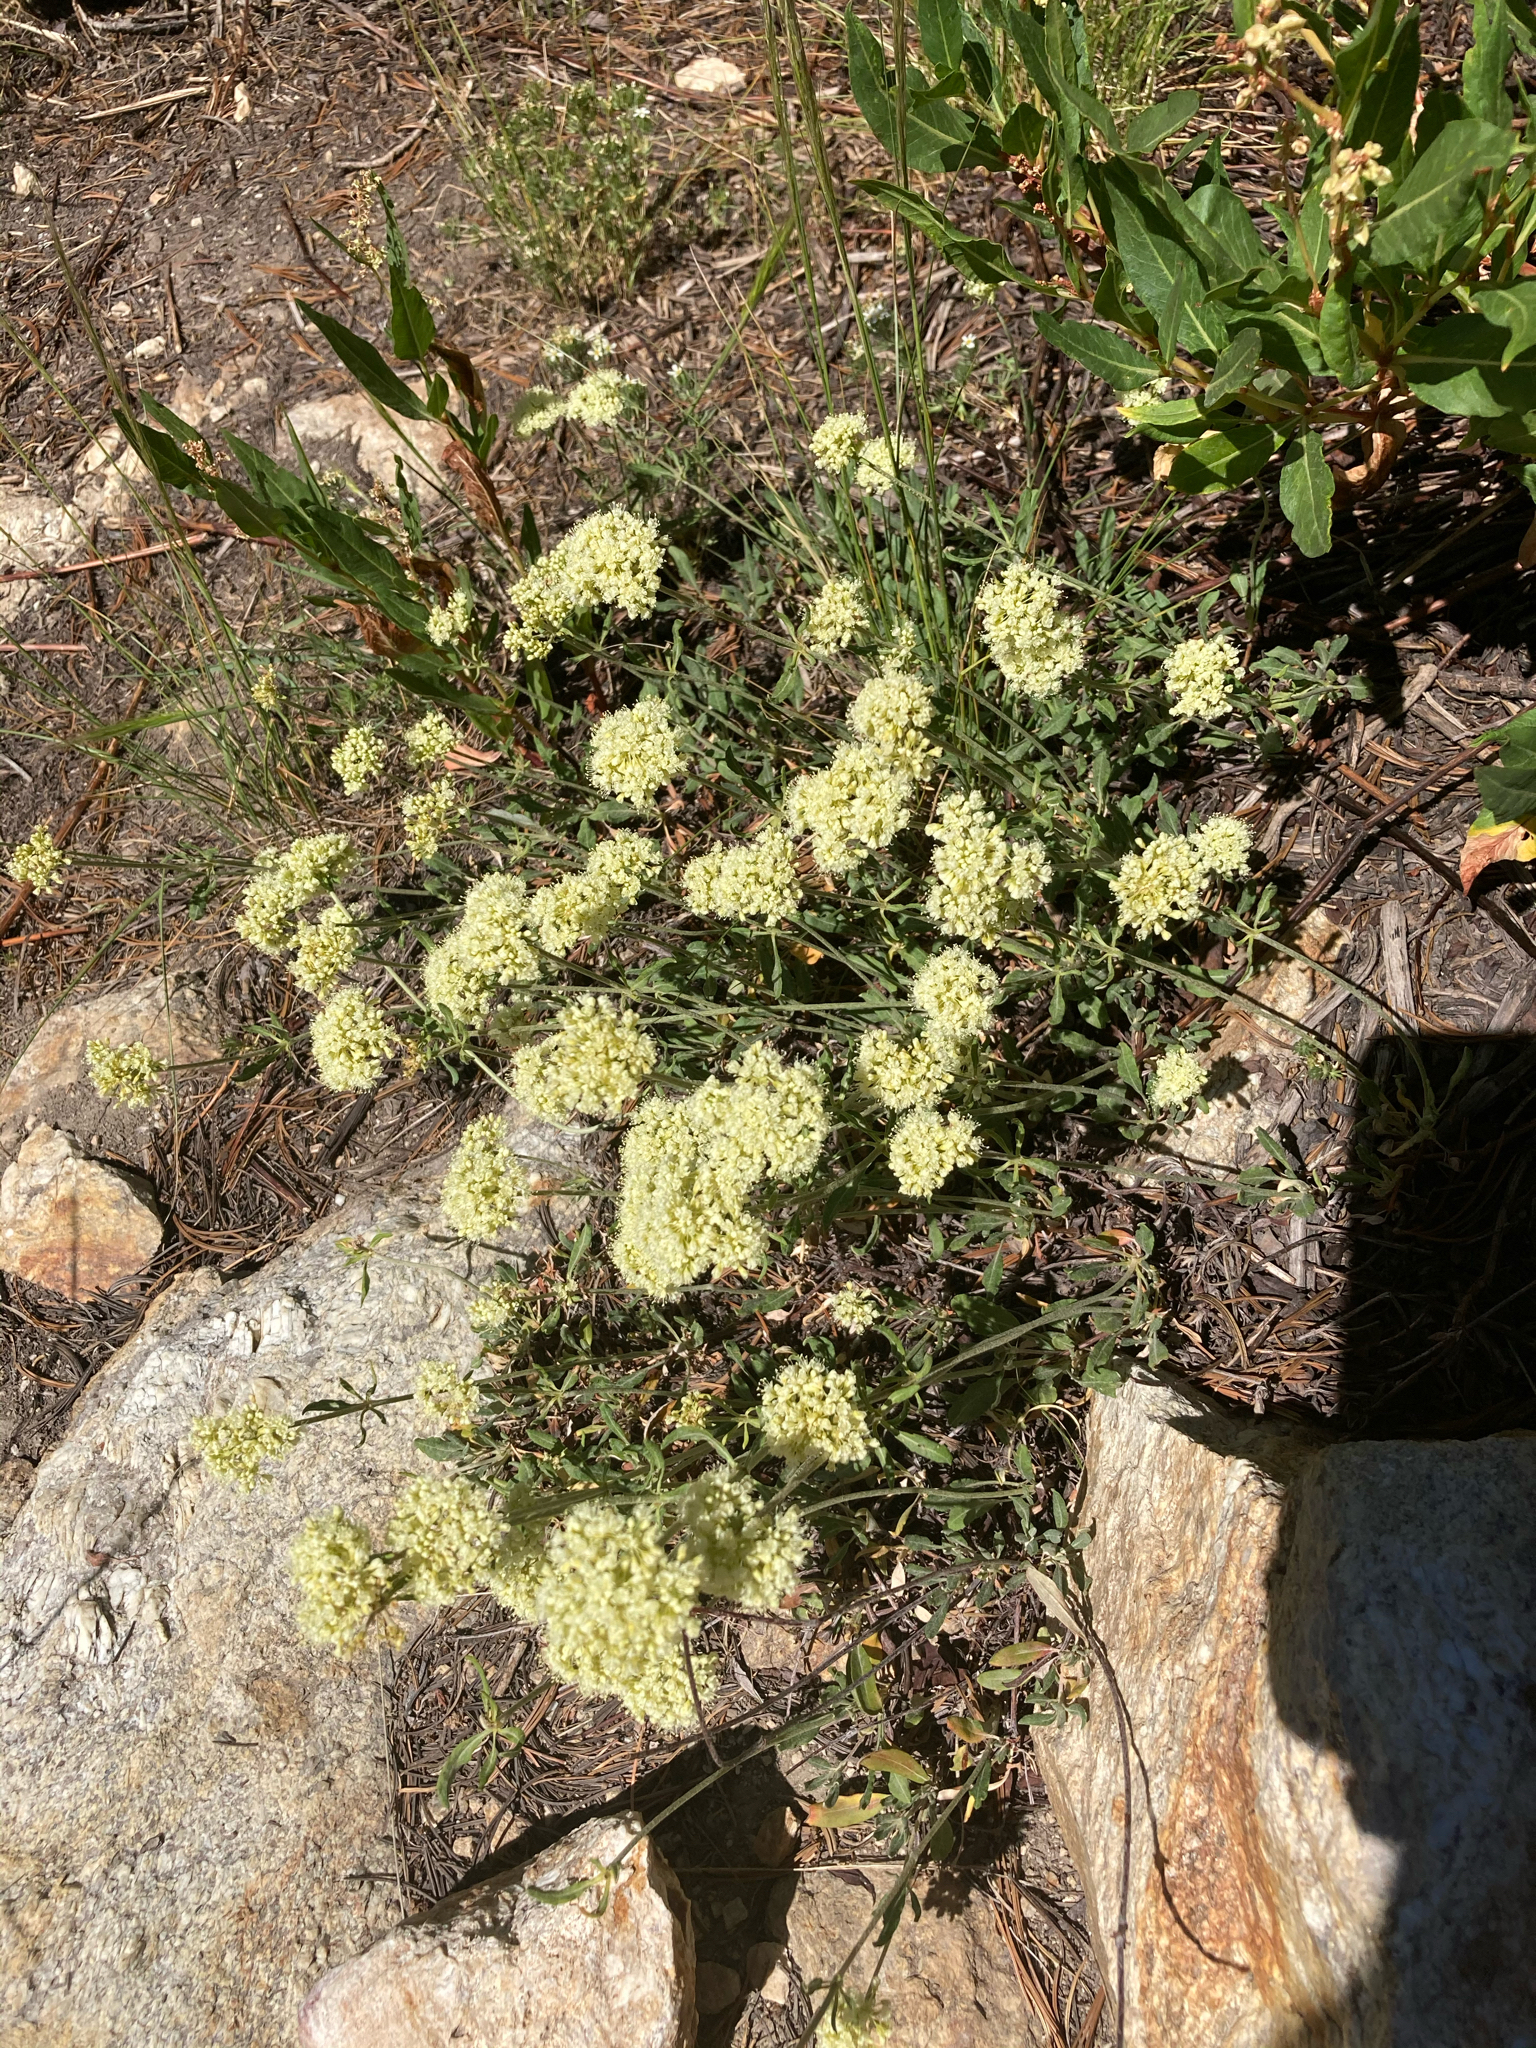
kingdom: Plantae
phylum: Tracheophyta
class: Magnoliopsida
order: Caryophyllales
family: Polygonaceae
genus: Eriogonum
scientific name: Eriogonum heracleoides
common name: Wyeth's buckwheat
